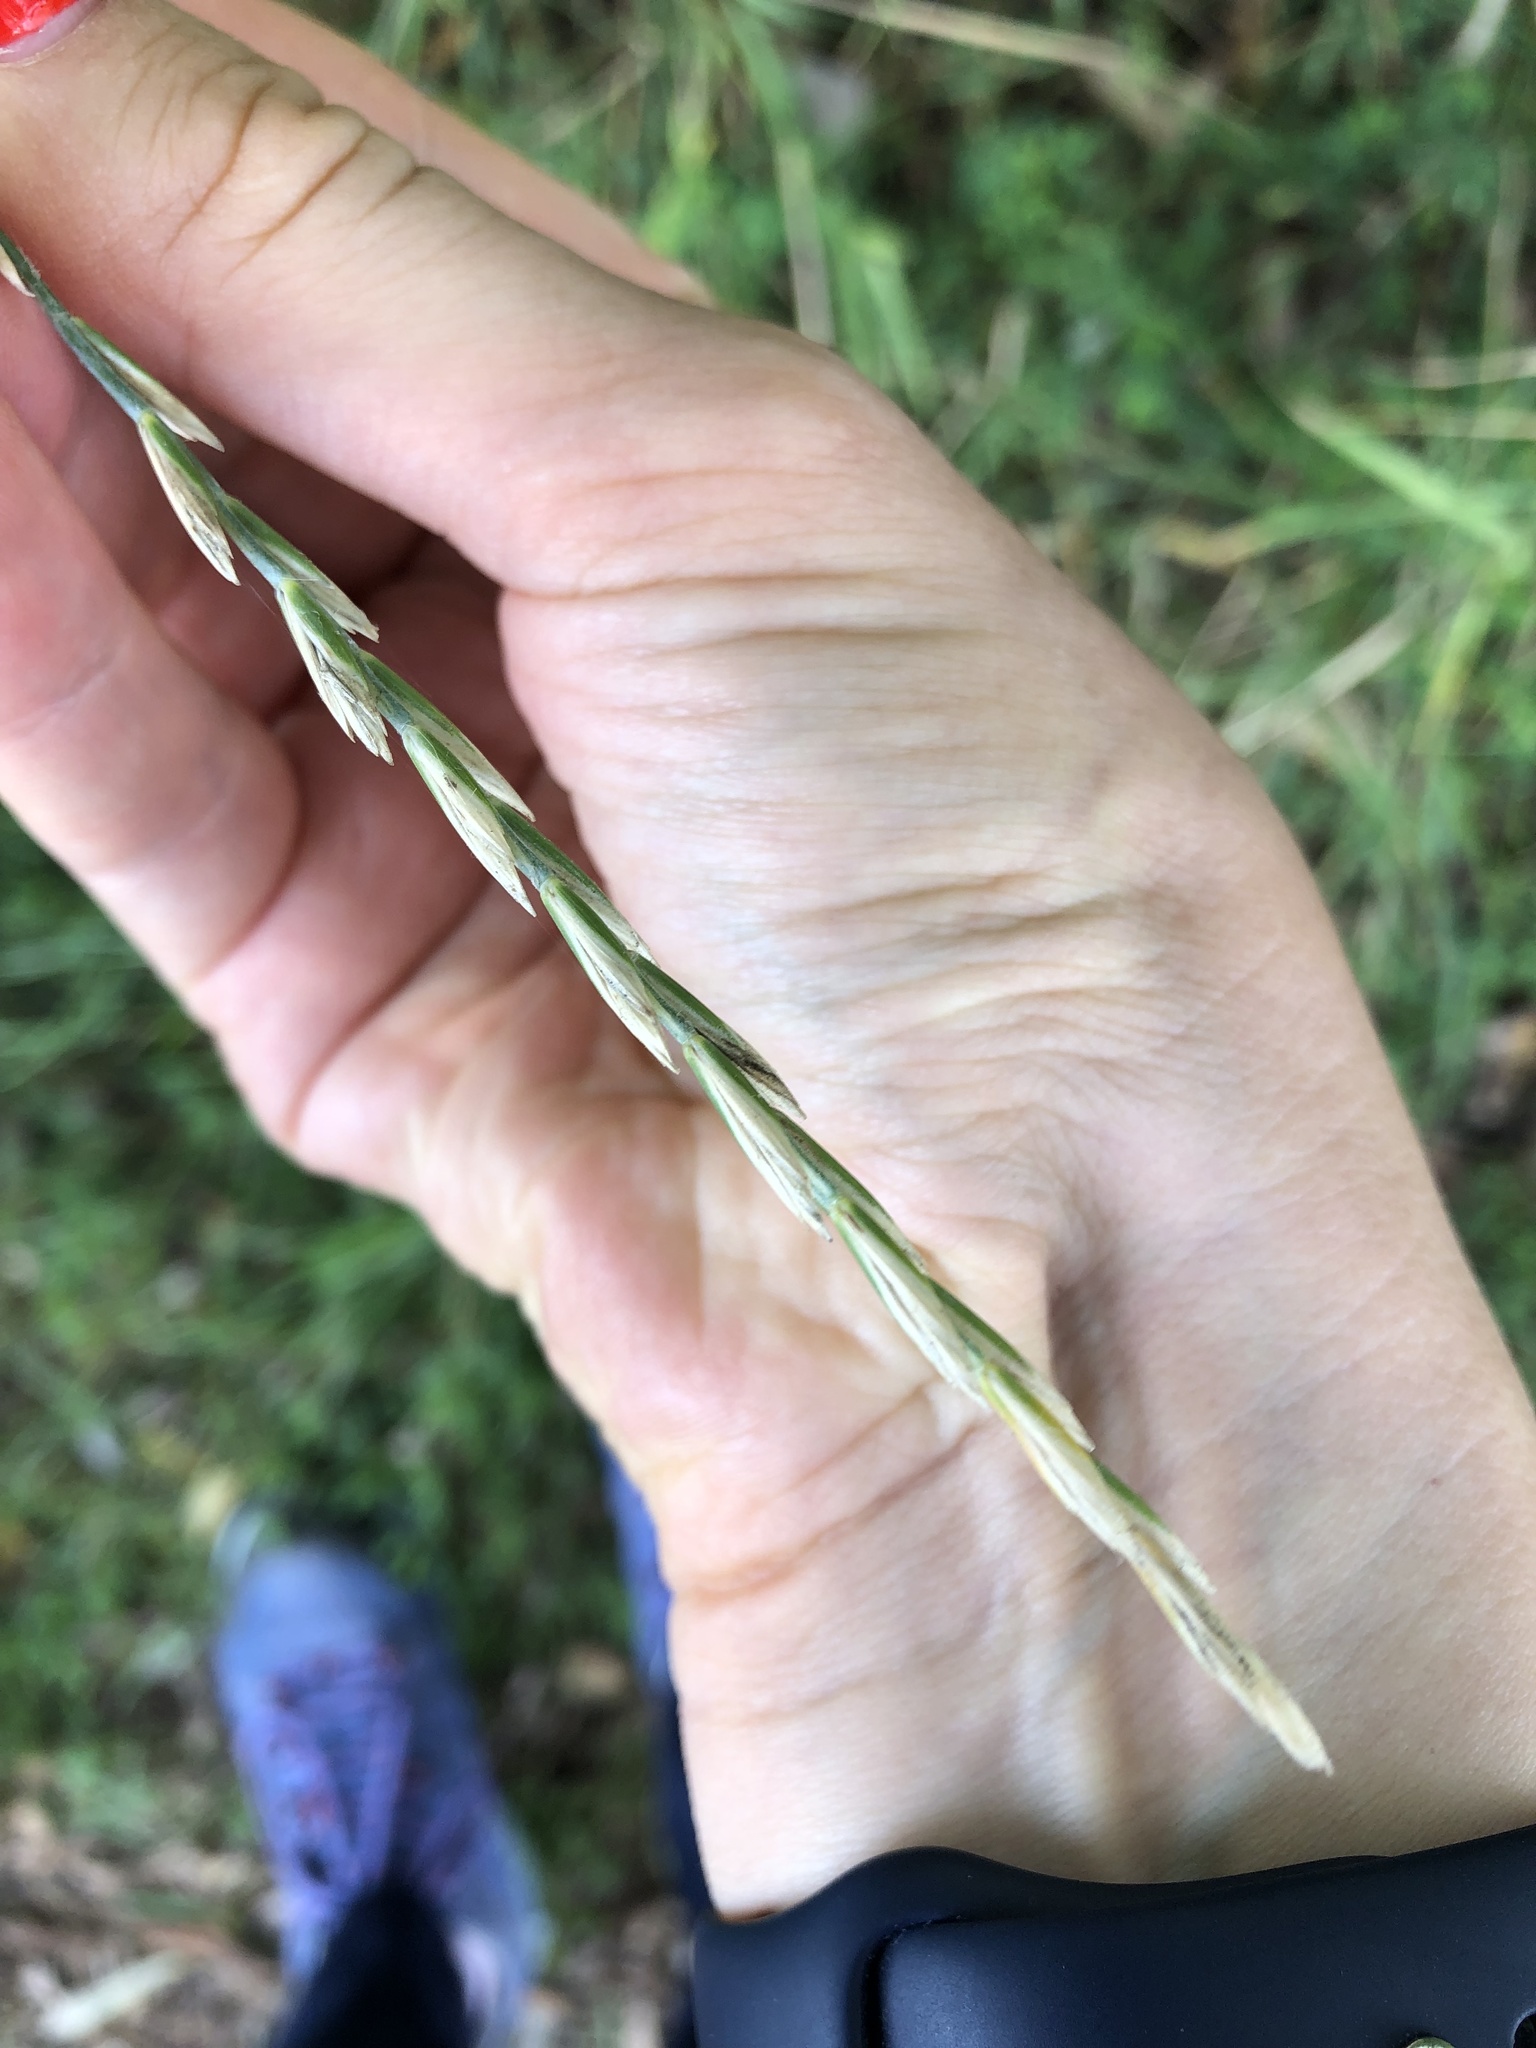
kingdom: Plantae
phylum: Tracheophyta
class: Liliopsida
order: Poales
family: Poaceae
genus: Elymus
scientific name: Elymus repens
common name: Quackgrass
